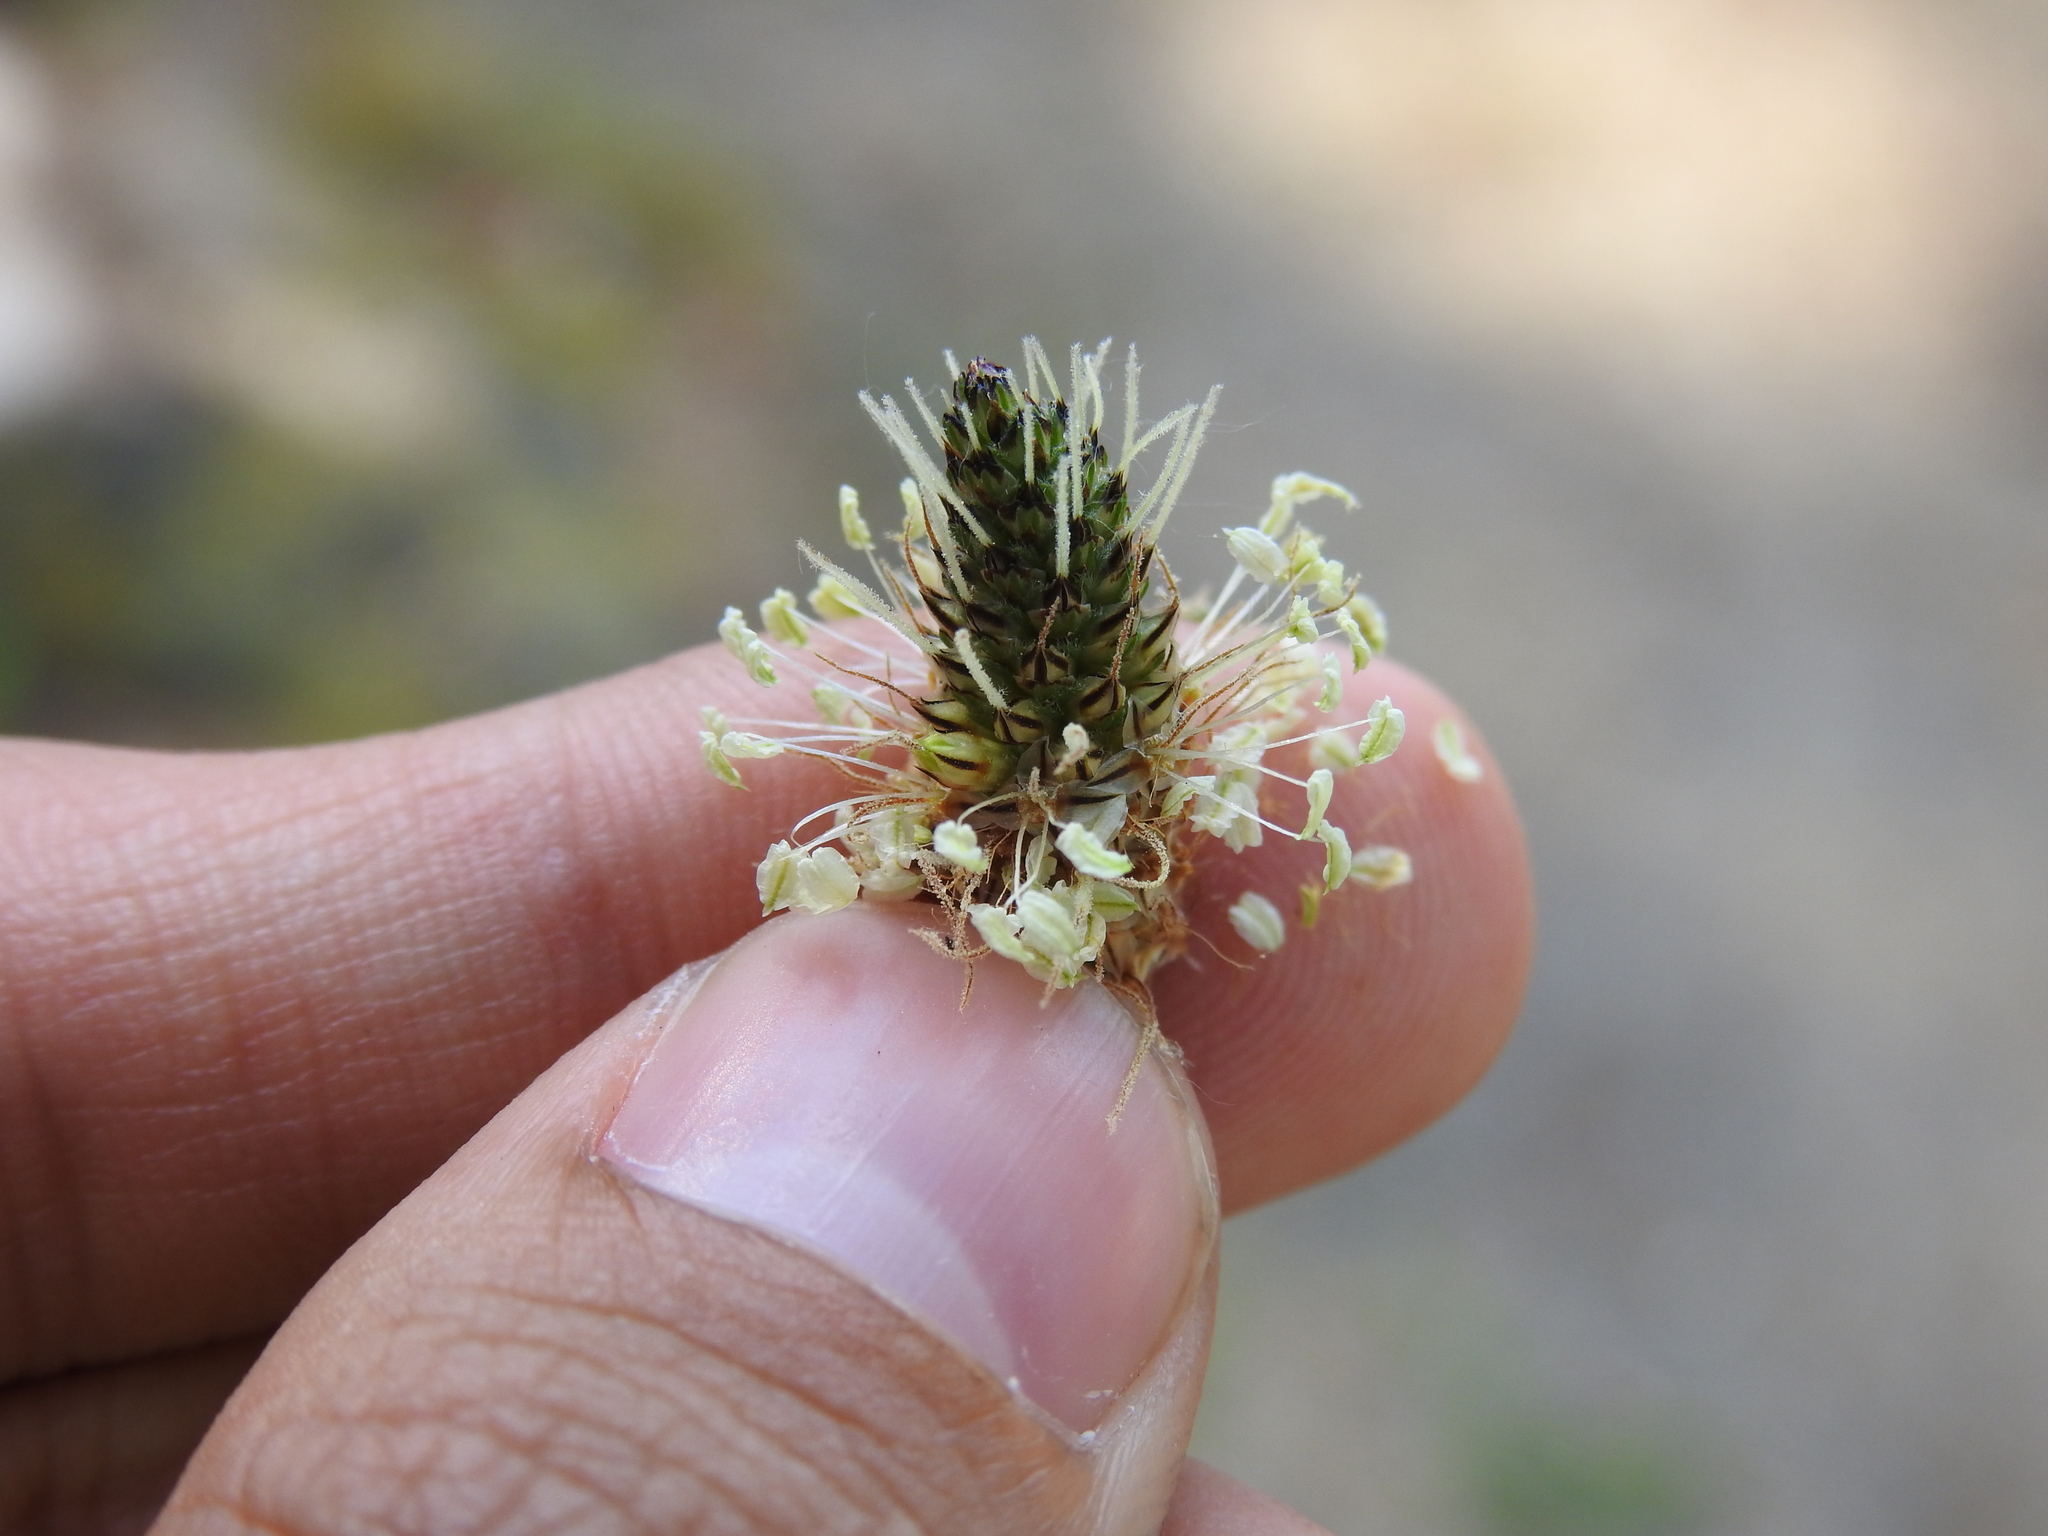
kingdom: Plantae
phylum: Tracheophyta
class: Magnoliopsida
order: Lamiales
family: Plantaginaceae
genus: Plantago
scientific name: Plantago lanceolata
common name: Ribwort plantain
